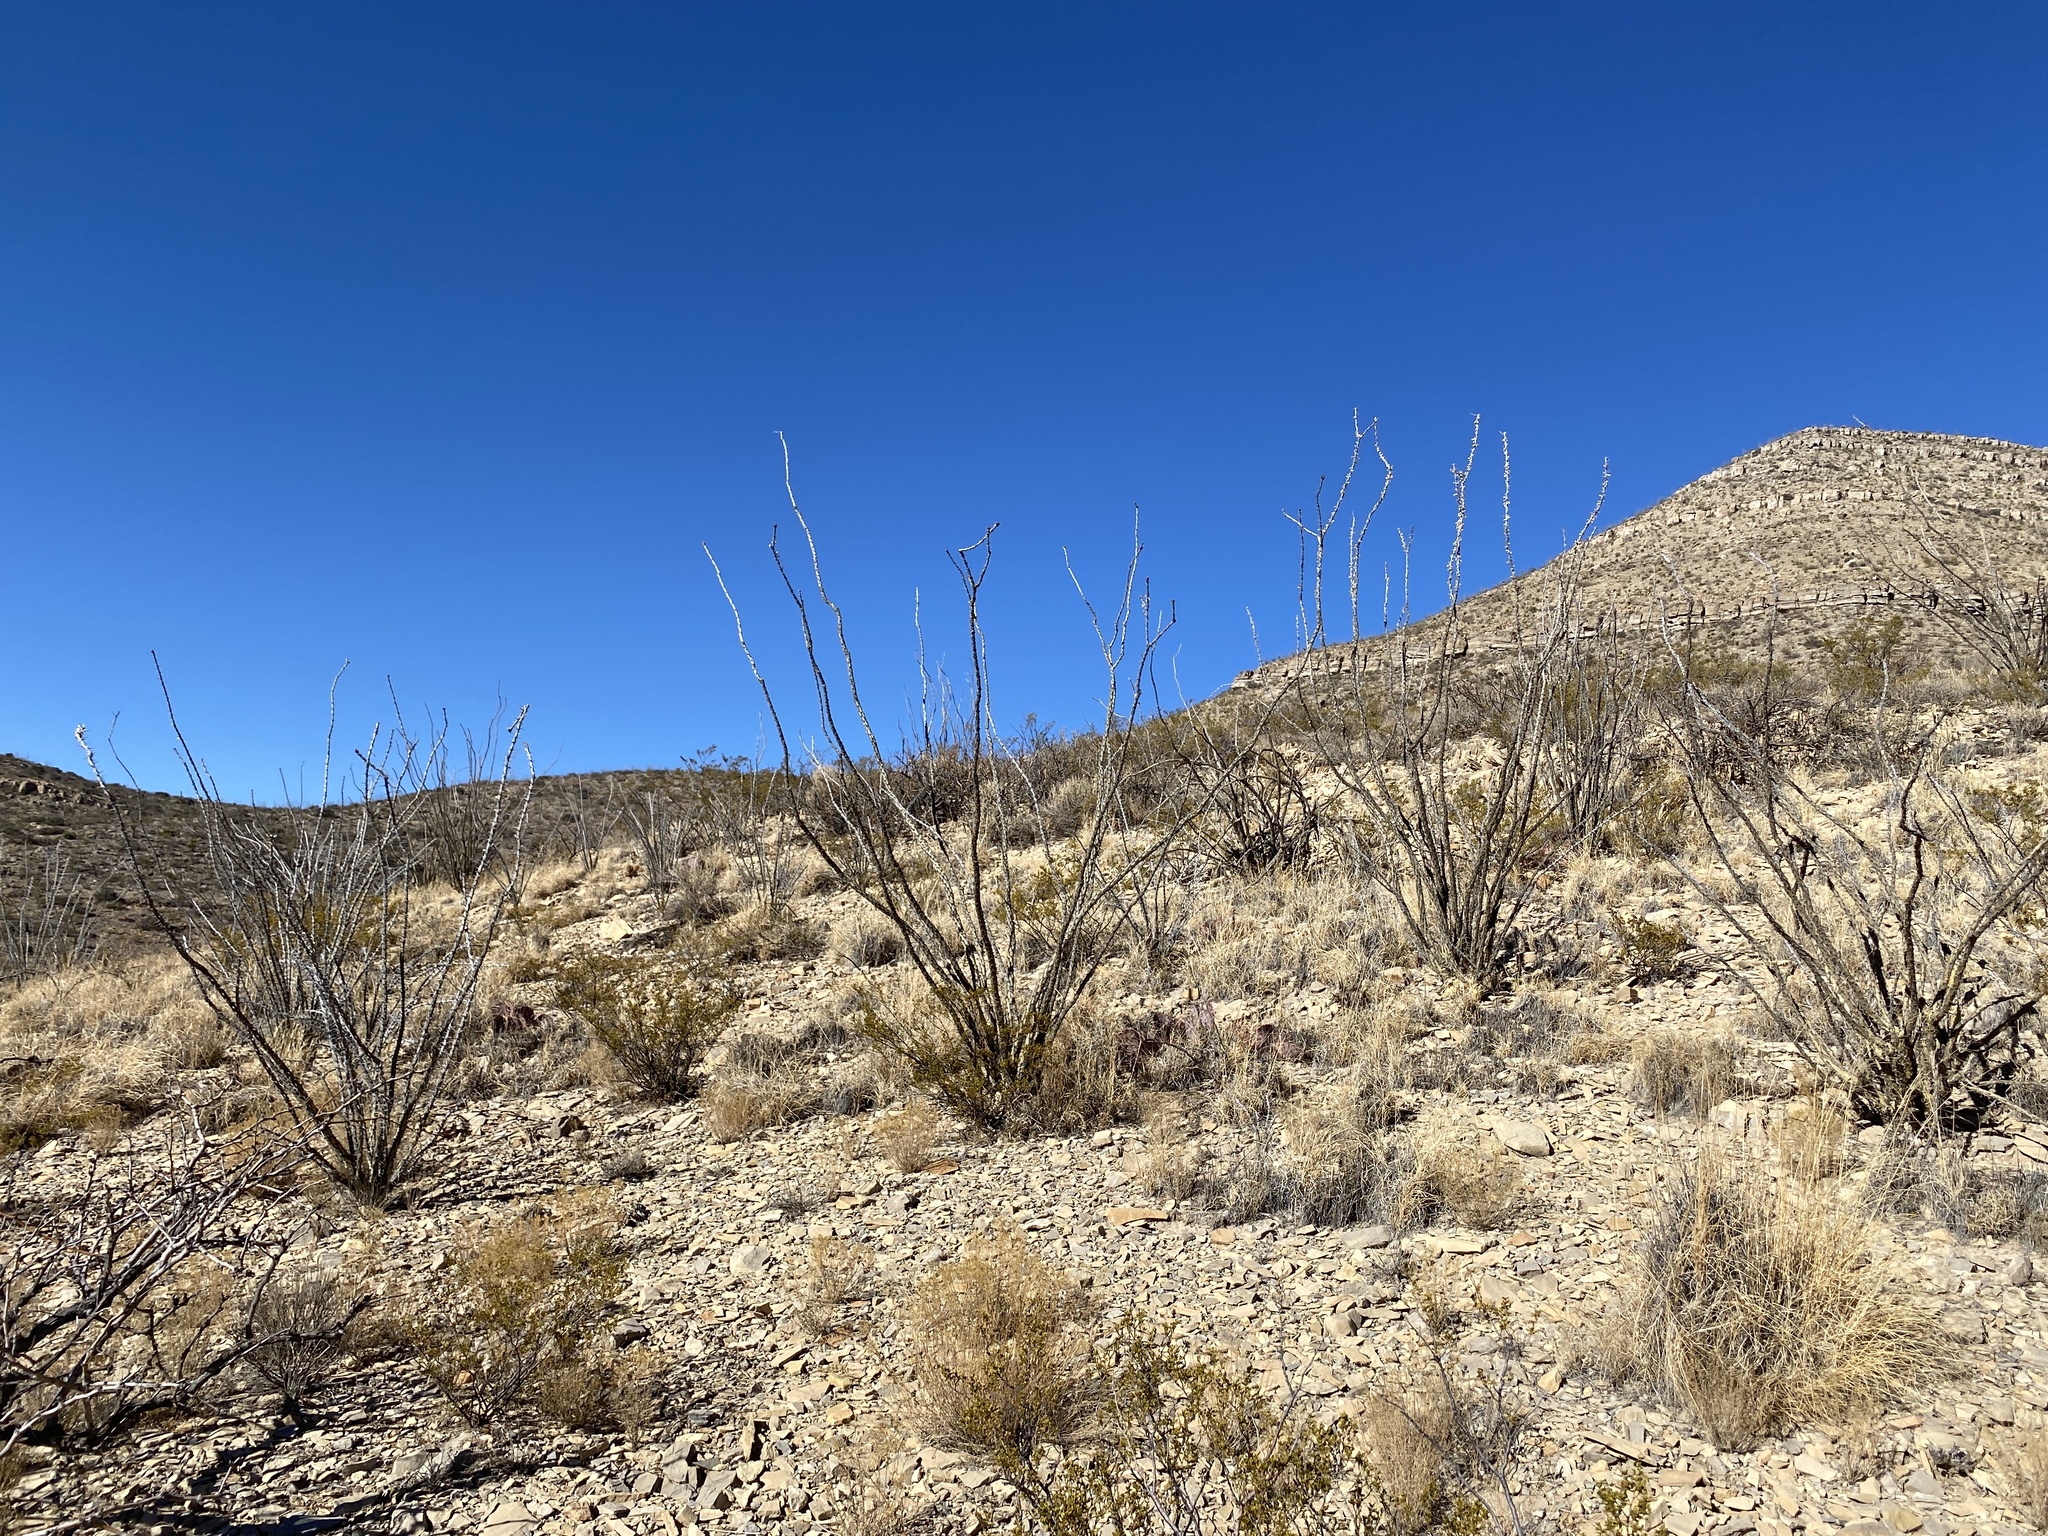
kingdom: Plantae
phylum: Tracheophyta
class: Magnoliopsida
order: Ericales
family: Fouquieriaceae
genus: Fouquieria
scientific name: Fouquieria splendens
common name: Vine-cactus
